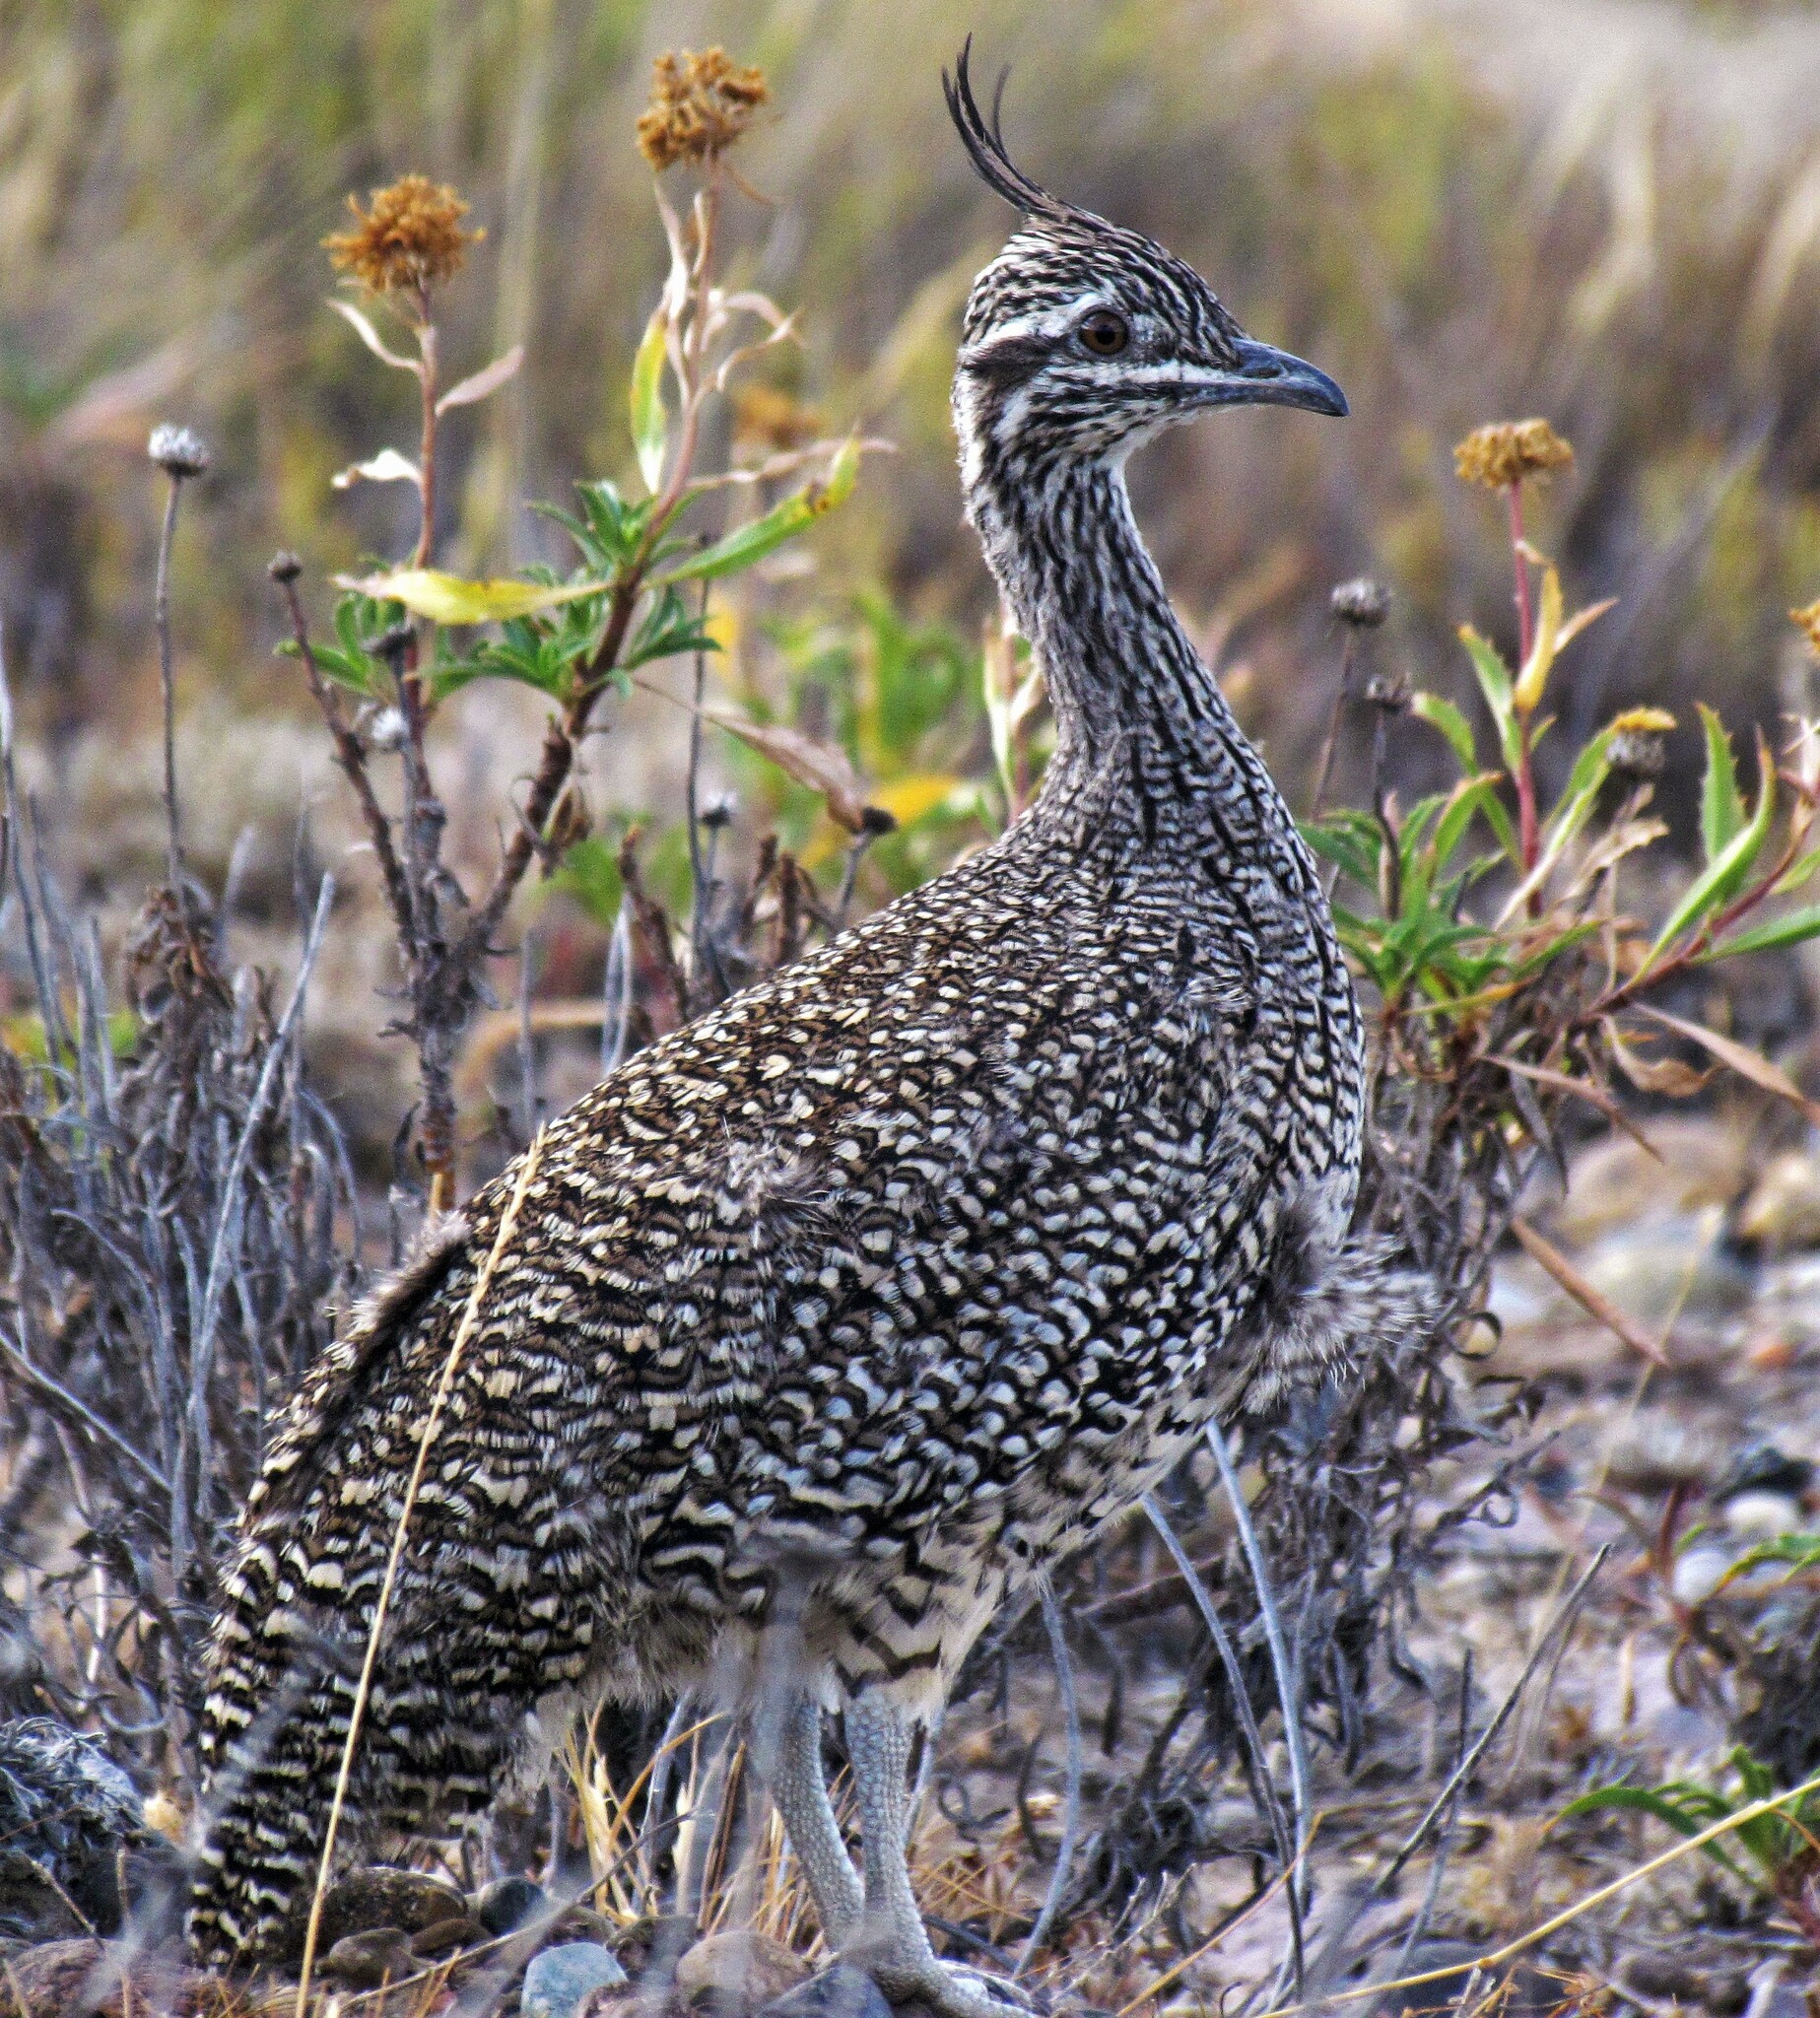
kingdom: Animalia
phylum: Chordata
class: Aves
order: Tinamiformes
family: Tinamidae
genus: Eudromia
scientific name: Eudromia elegans
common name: Elegant crested tinamou
